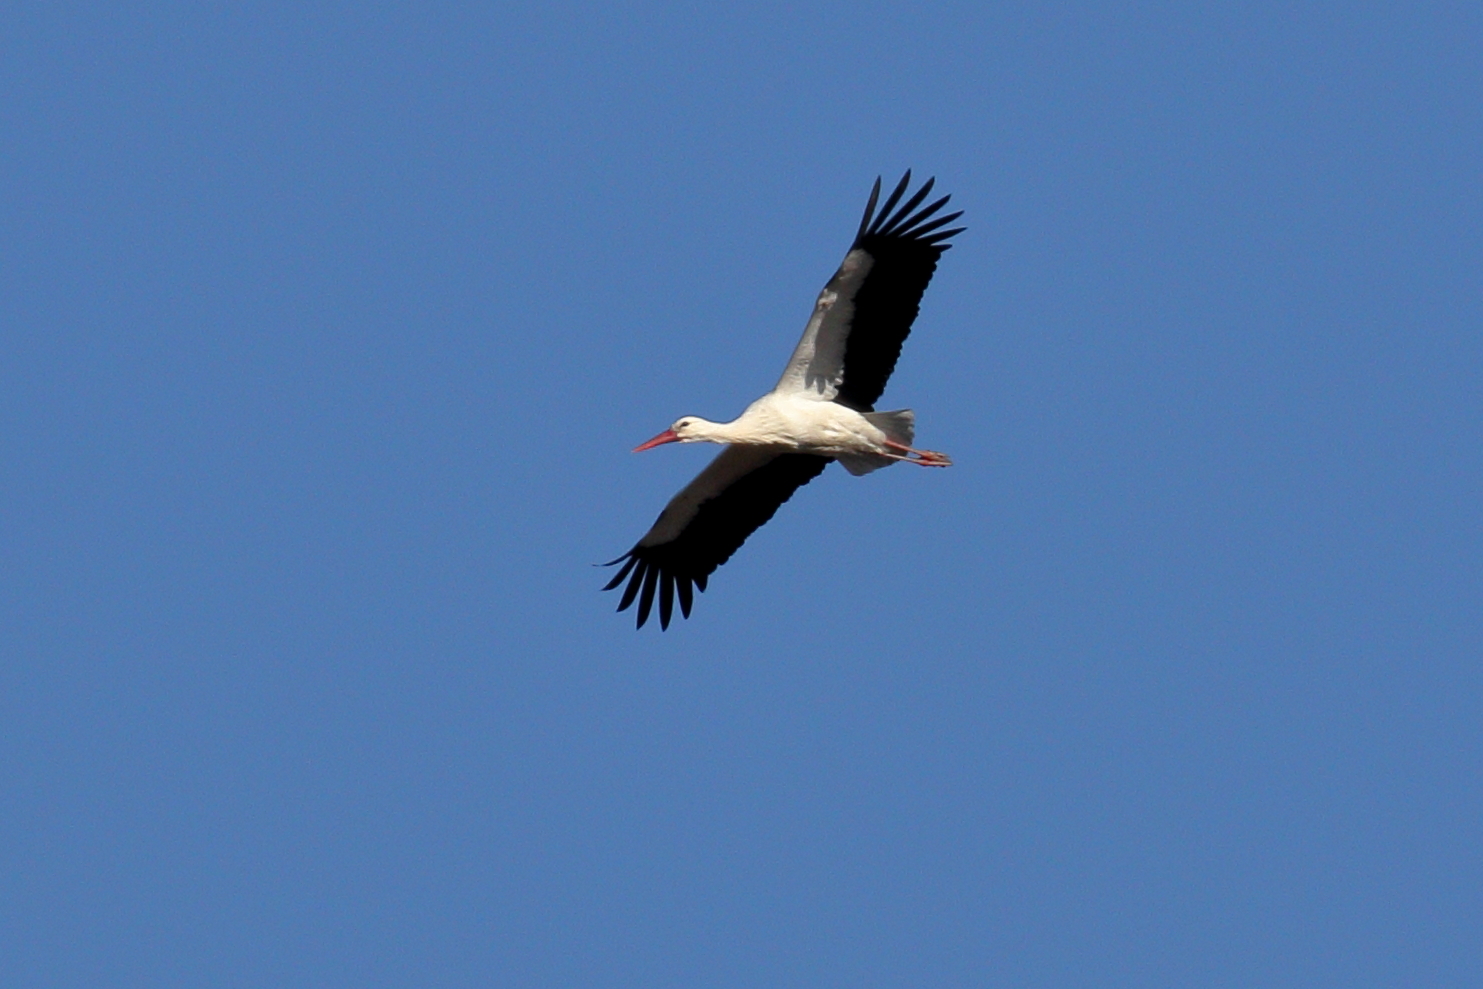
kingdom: Animalia
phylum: Chordata
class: Aves
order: Ciconiiformes
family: Ciconiidae
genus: Ciconia
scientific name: Ciconia ciconia
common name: White stork
